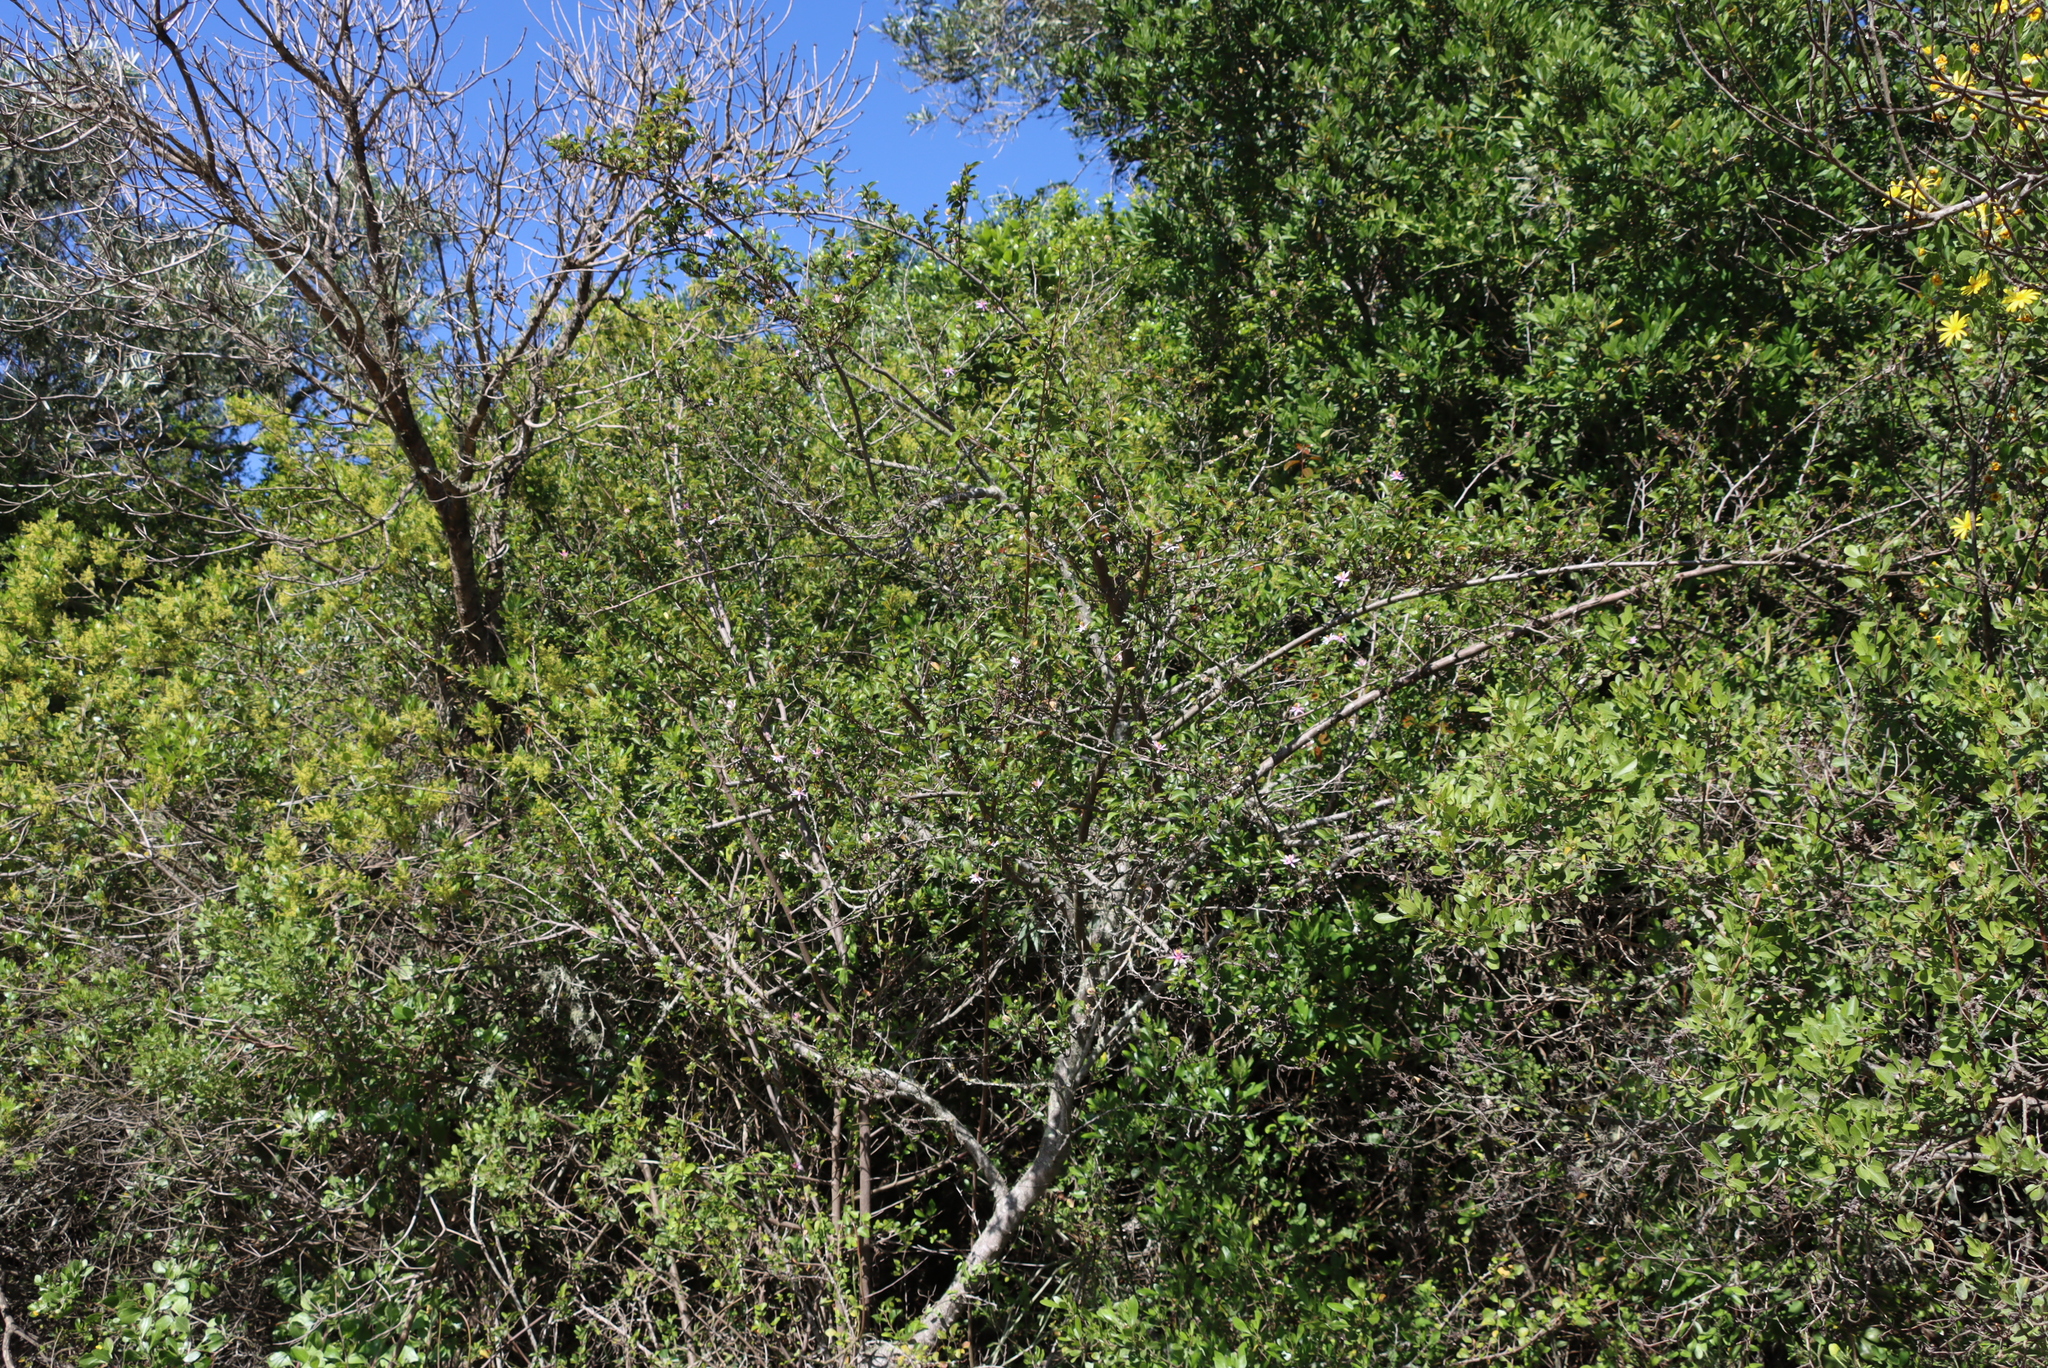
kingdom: Plantae
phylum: Tracheophyta
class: Magnoliopsida
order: Malvales
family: Malvaceae
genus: Grewia
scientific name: Grewia occidentalis
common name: Crossberry
